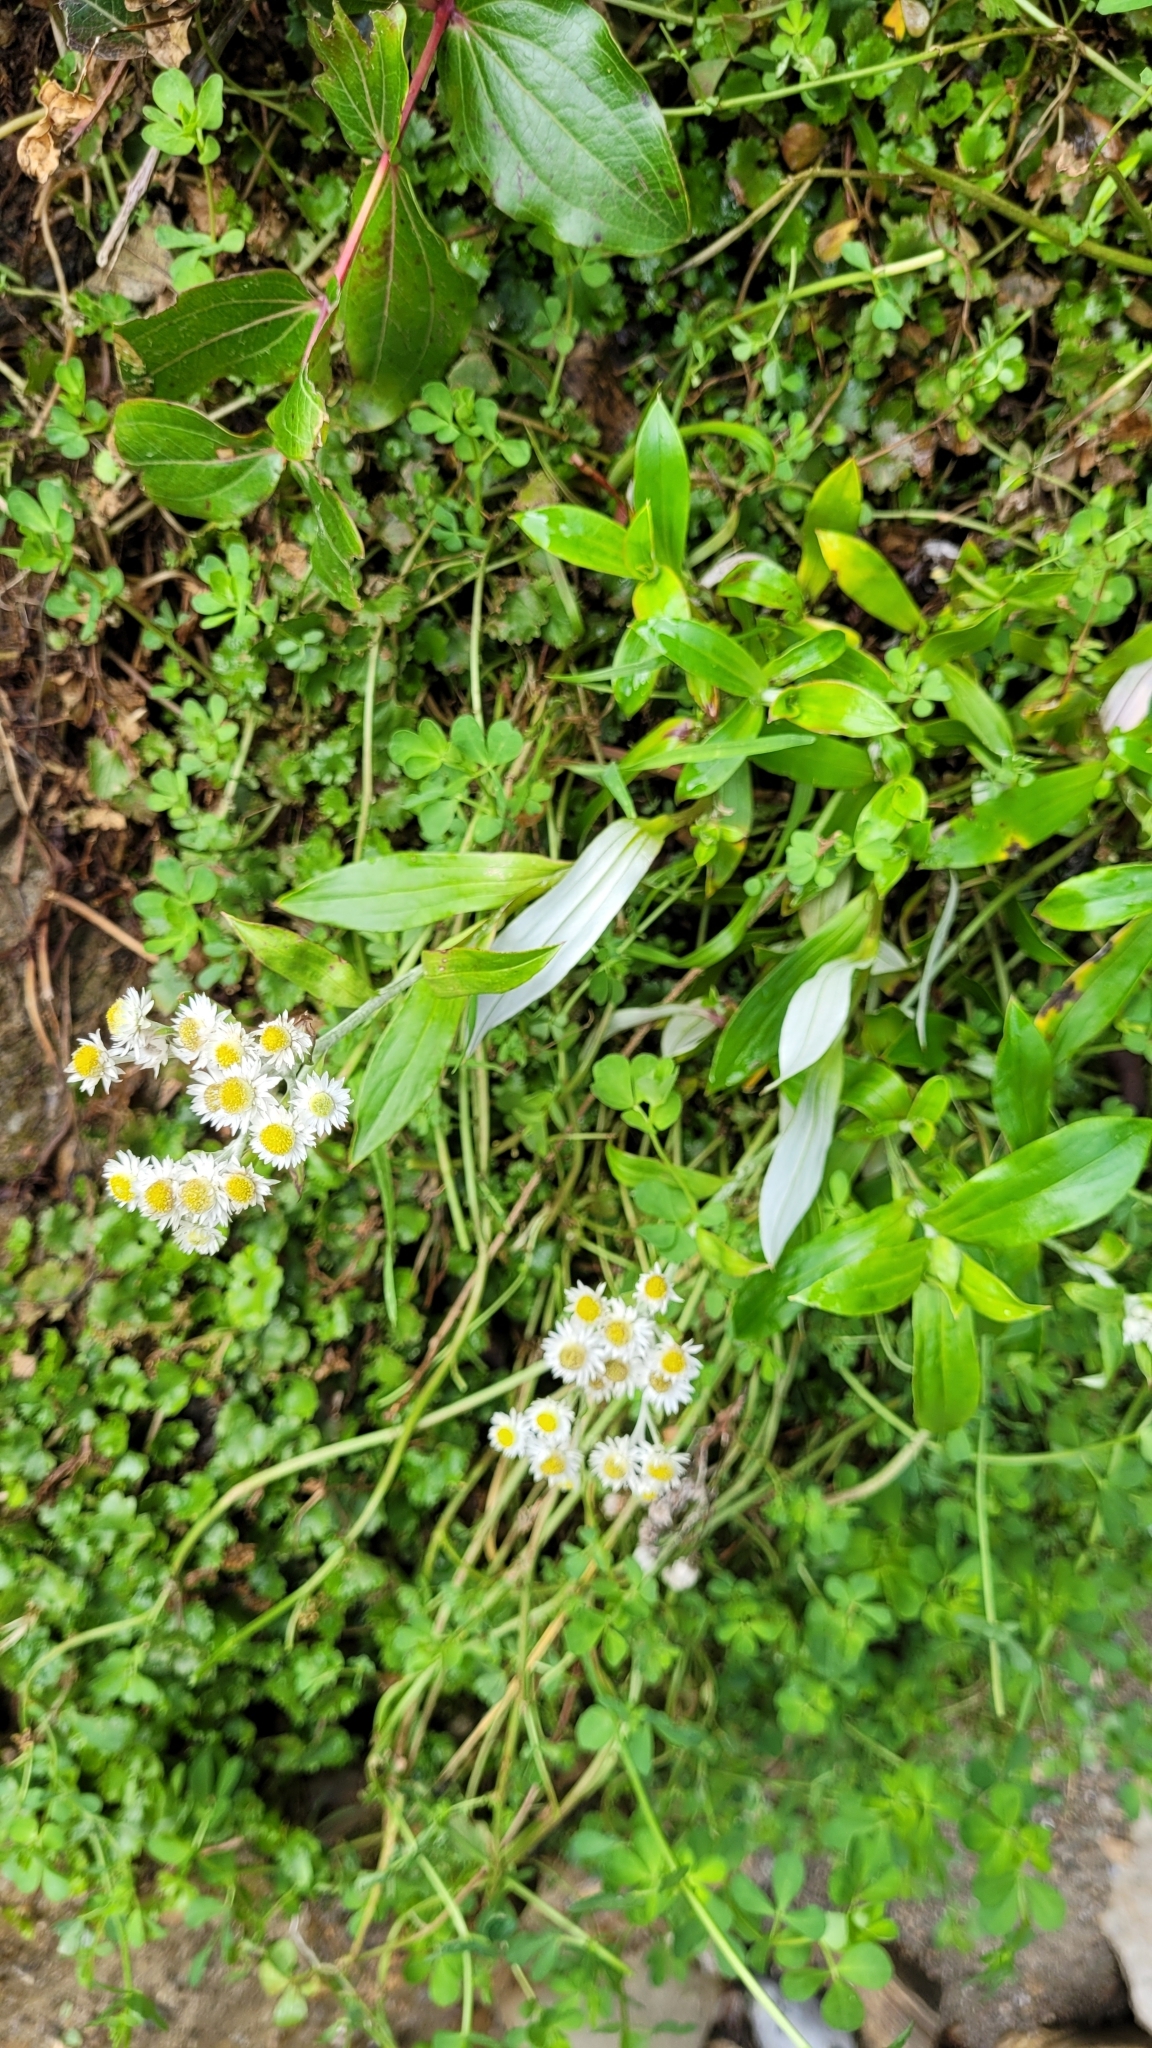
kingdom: Plantae
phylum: Tracheophyta
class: Magnoliopsida
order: Asterales
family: Asteraceae
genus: Anaphalioides
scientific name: Anaphalioides trinervis
